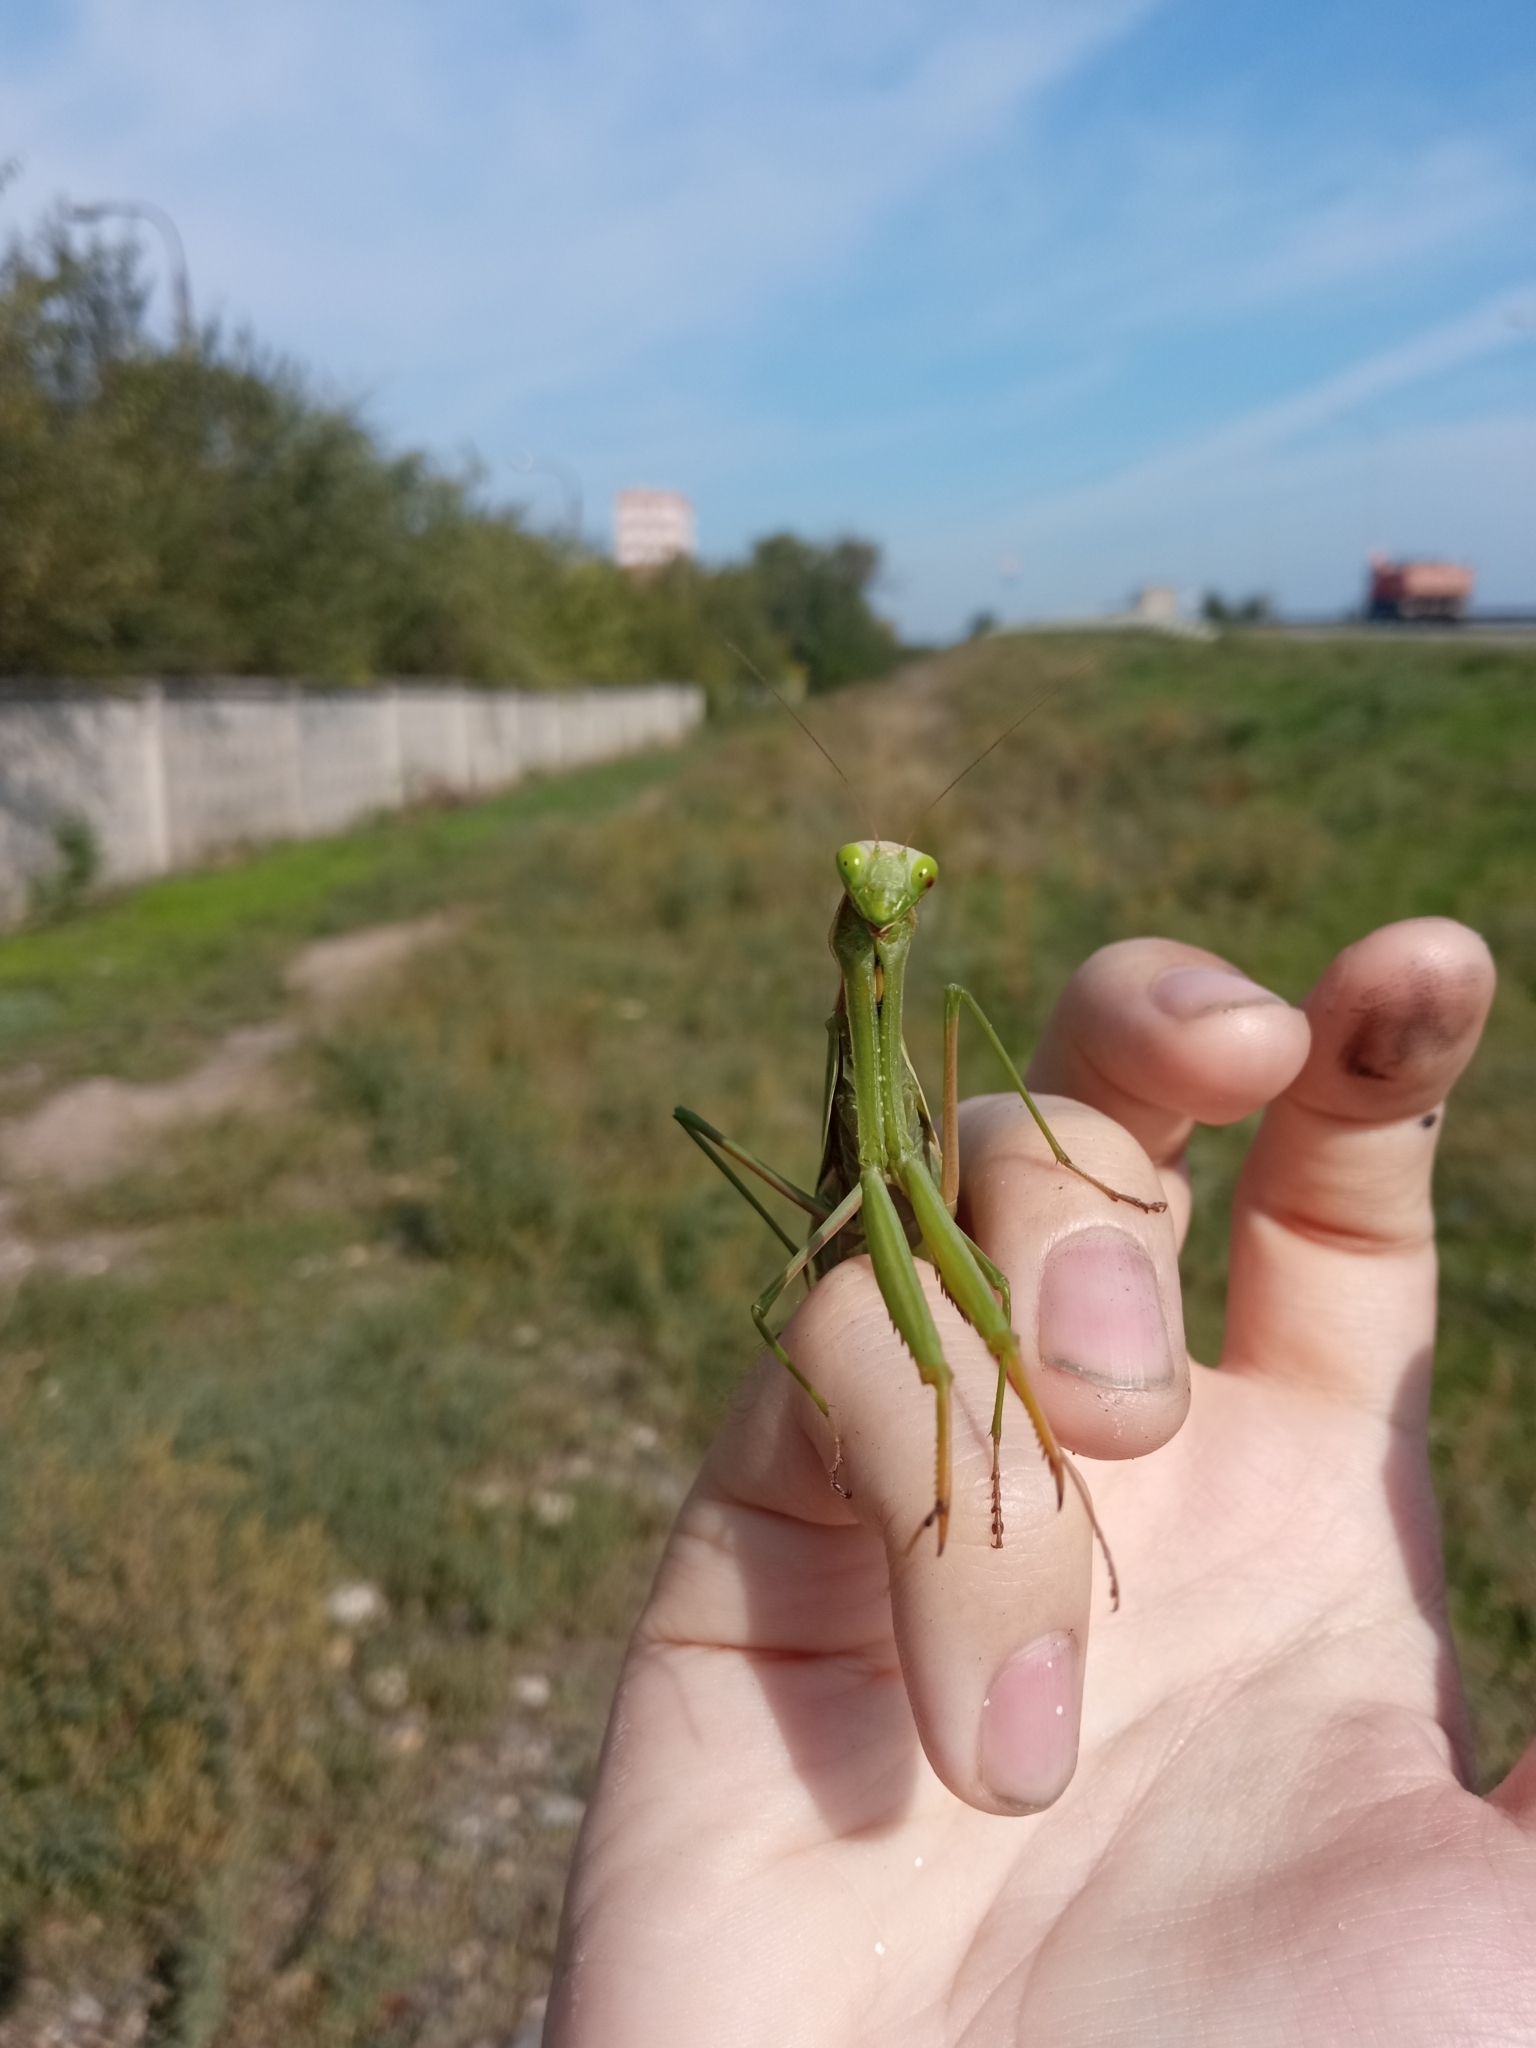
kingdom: Animalia
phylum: Arthropoda
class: Insecta
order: Mantodea
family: Mantidae
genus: Mantis
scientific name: Mantis religiosa
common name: Praying mantis
